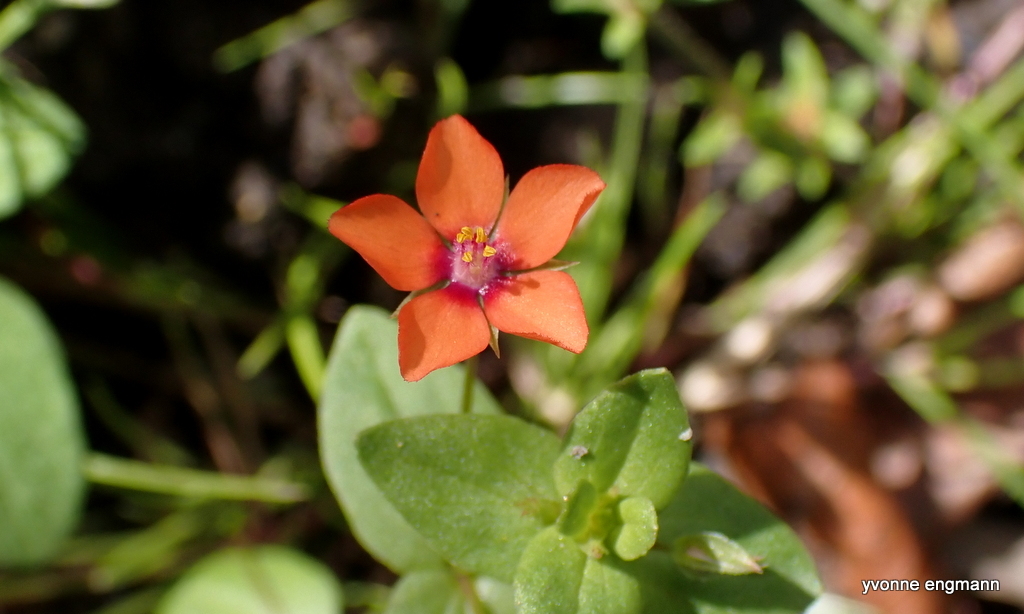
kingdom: Plantae
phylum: Tracheophyta
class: Magnoliopsida
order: Ericales
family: Primulaceae
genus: Lysimachia
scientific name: Lysimachia arvensis
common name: Scarlet pimpernel
